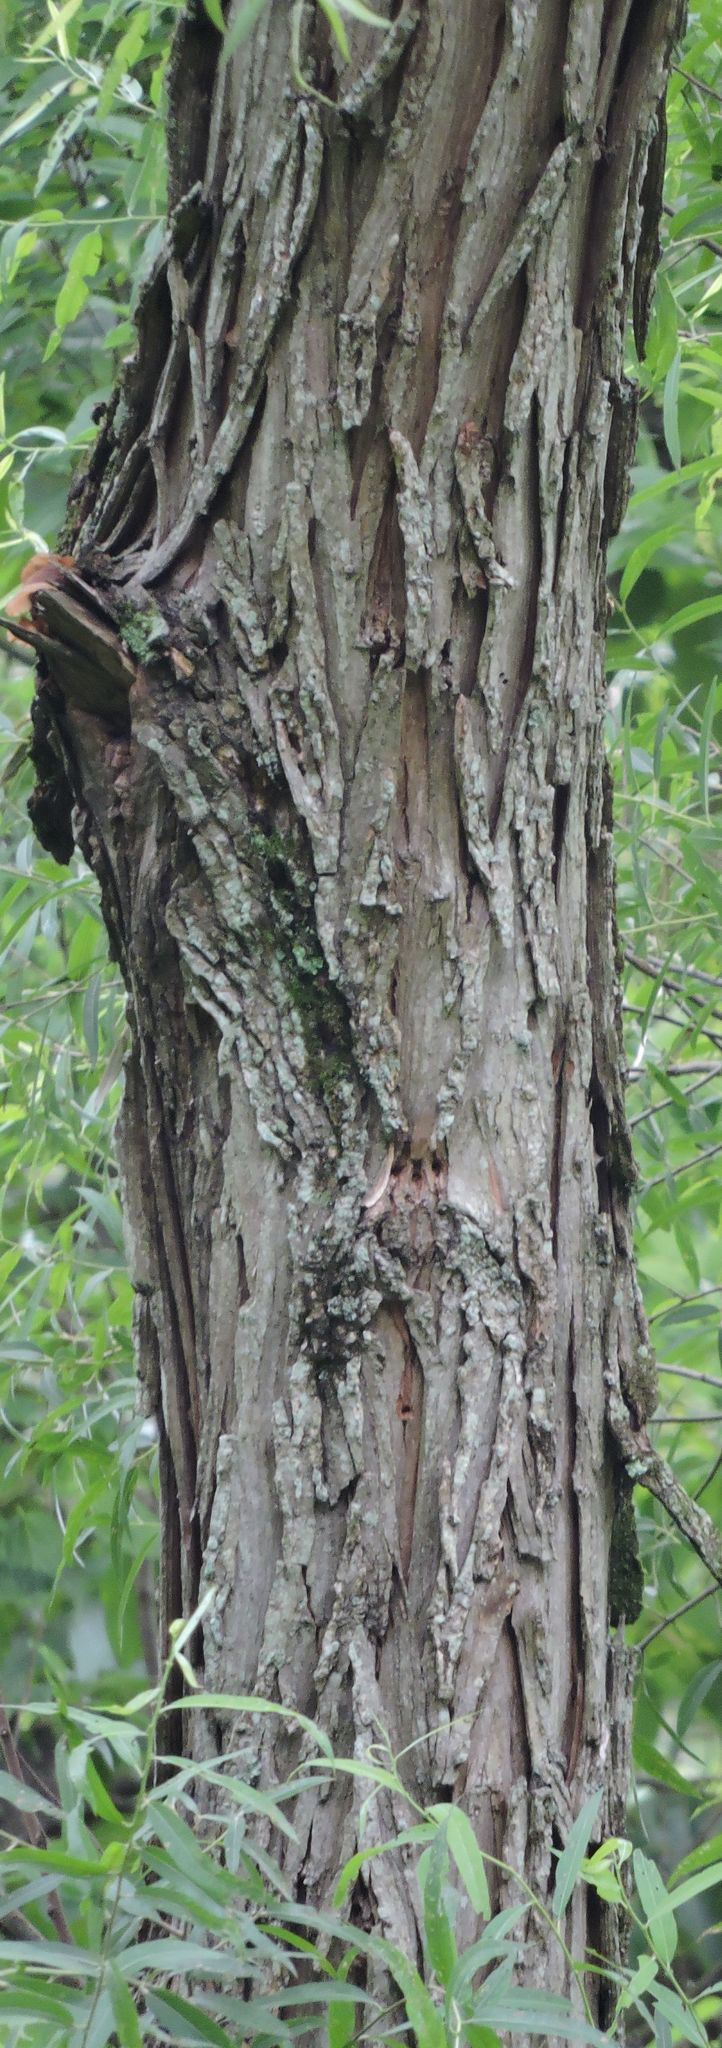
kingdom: Plantae
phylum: Tracheophyta
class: Magnoliopsida
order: Malpighiales
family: Salicaceae
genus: Salix
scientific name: Salix nigra
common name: Black willow
